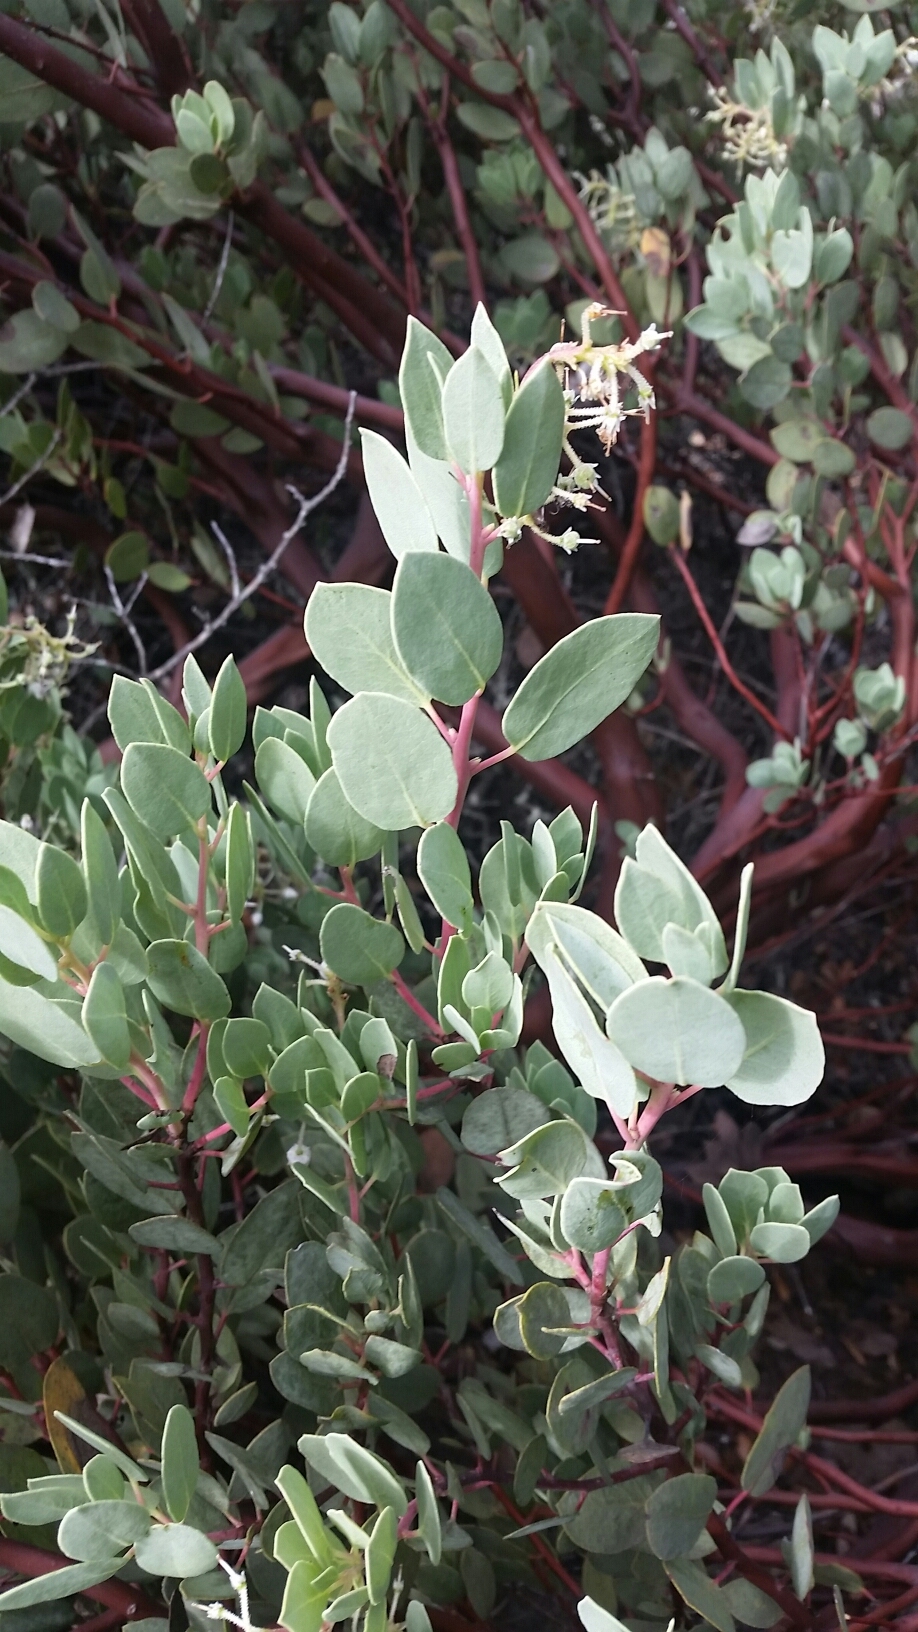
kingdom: Plantae
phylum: Tracheophyta
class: Magnoliopsida
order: Ericales
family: Ericaceae
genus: Arctostaphylos
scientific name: Arctostaphylos viscida
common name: White-leaf manzanita
